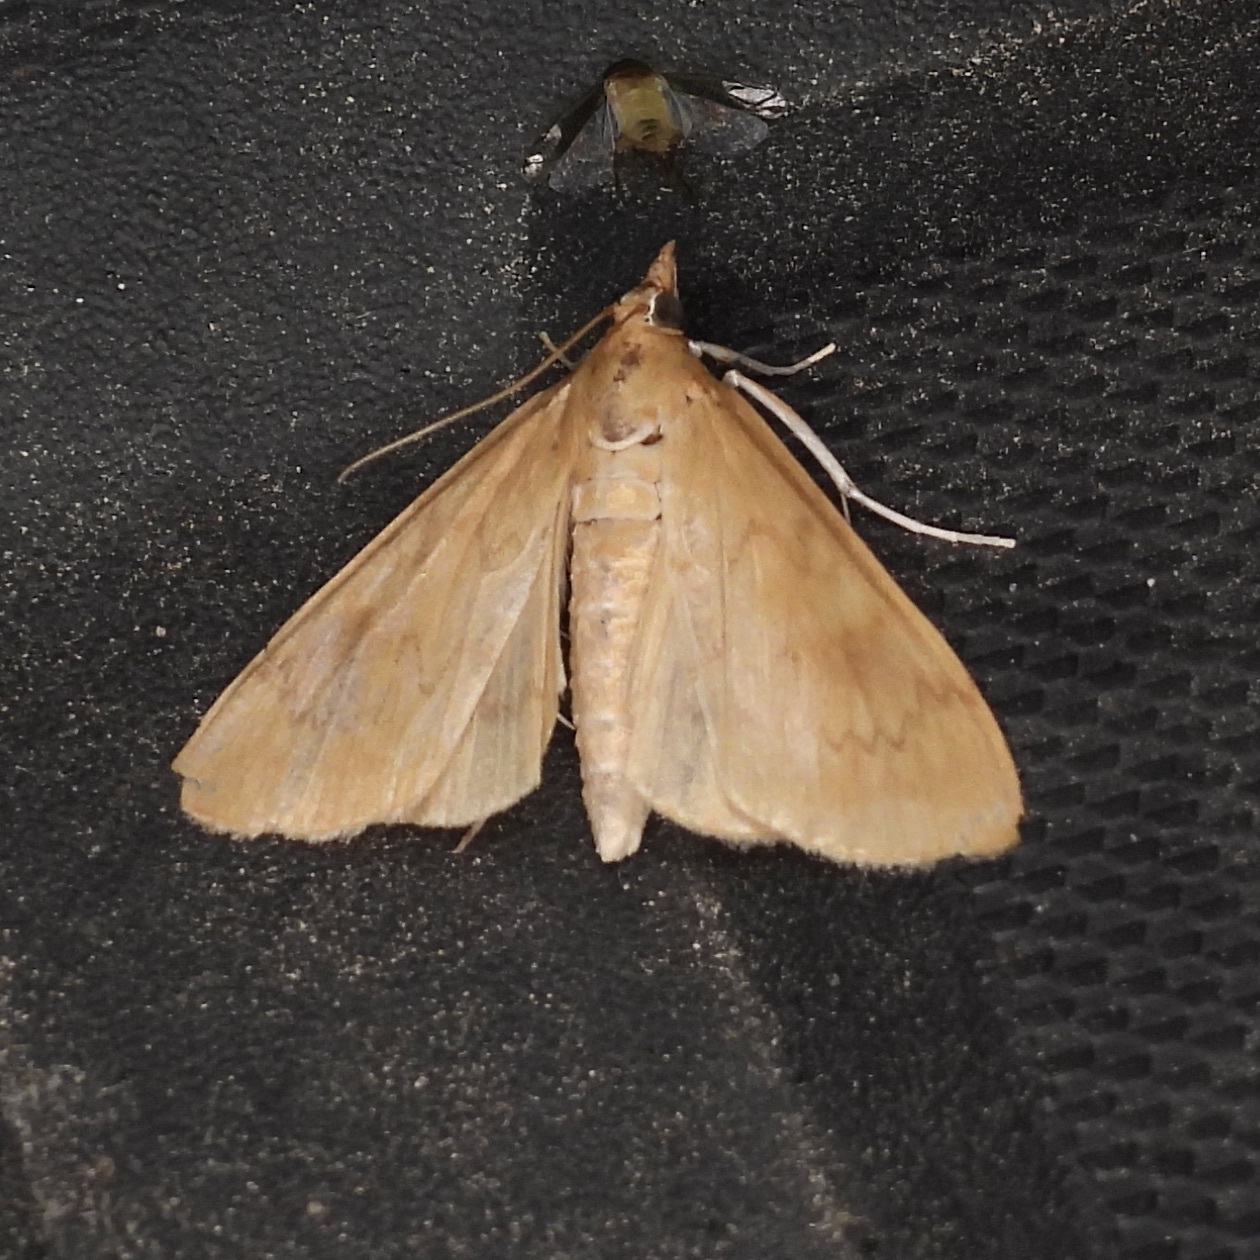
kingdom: Animalia
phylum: Arthropoda
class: Insecta
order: Lepidoptera
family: Crambidae
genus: Ostrinia
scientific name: Ostrinia penitalis
